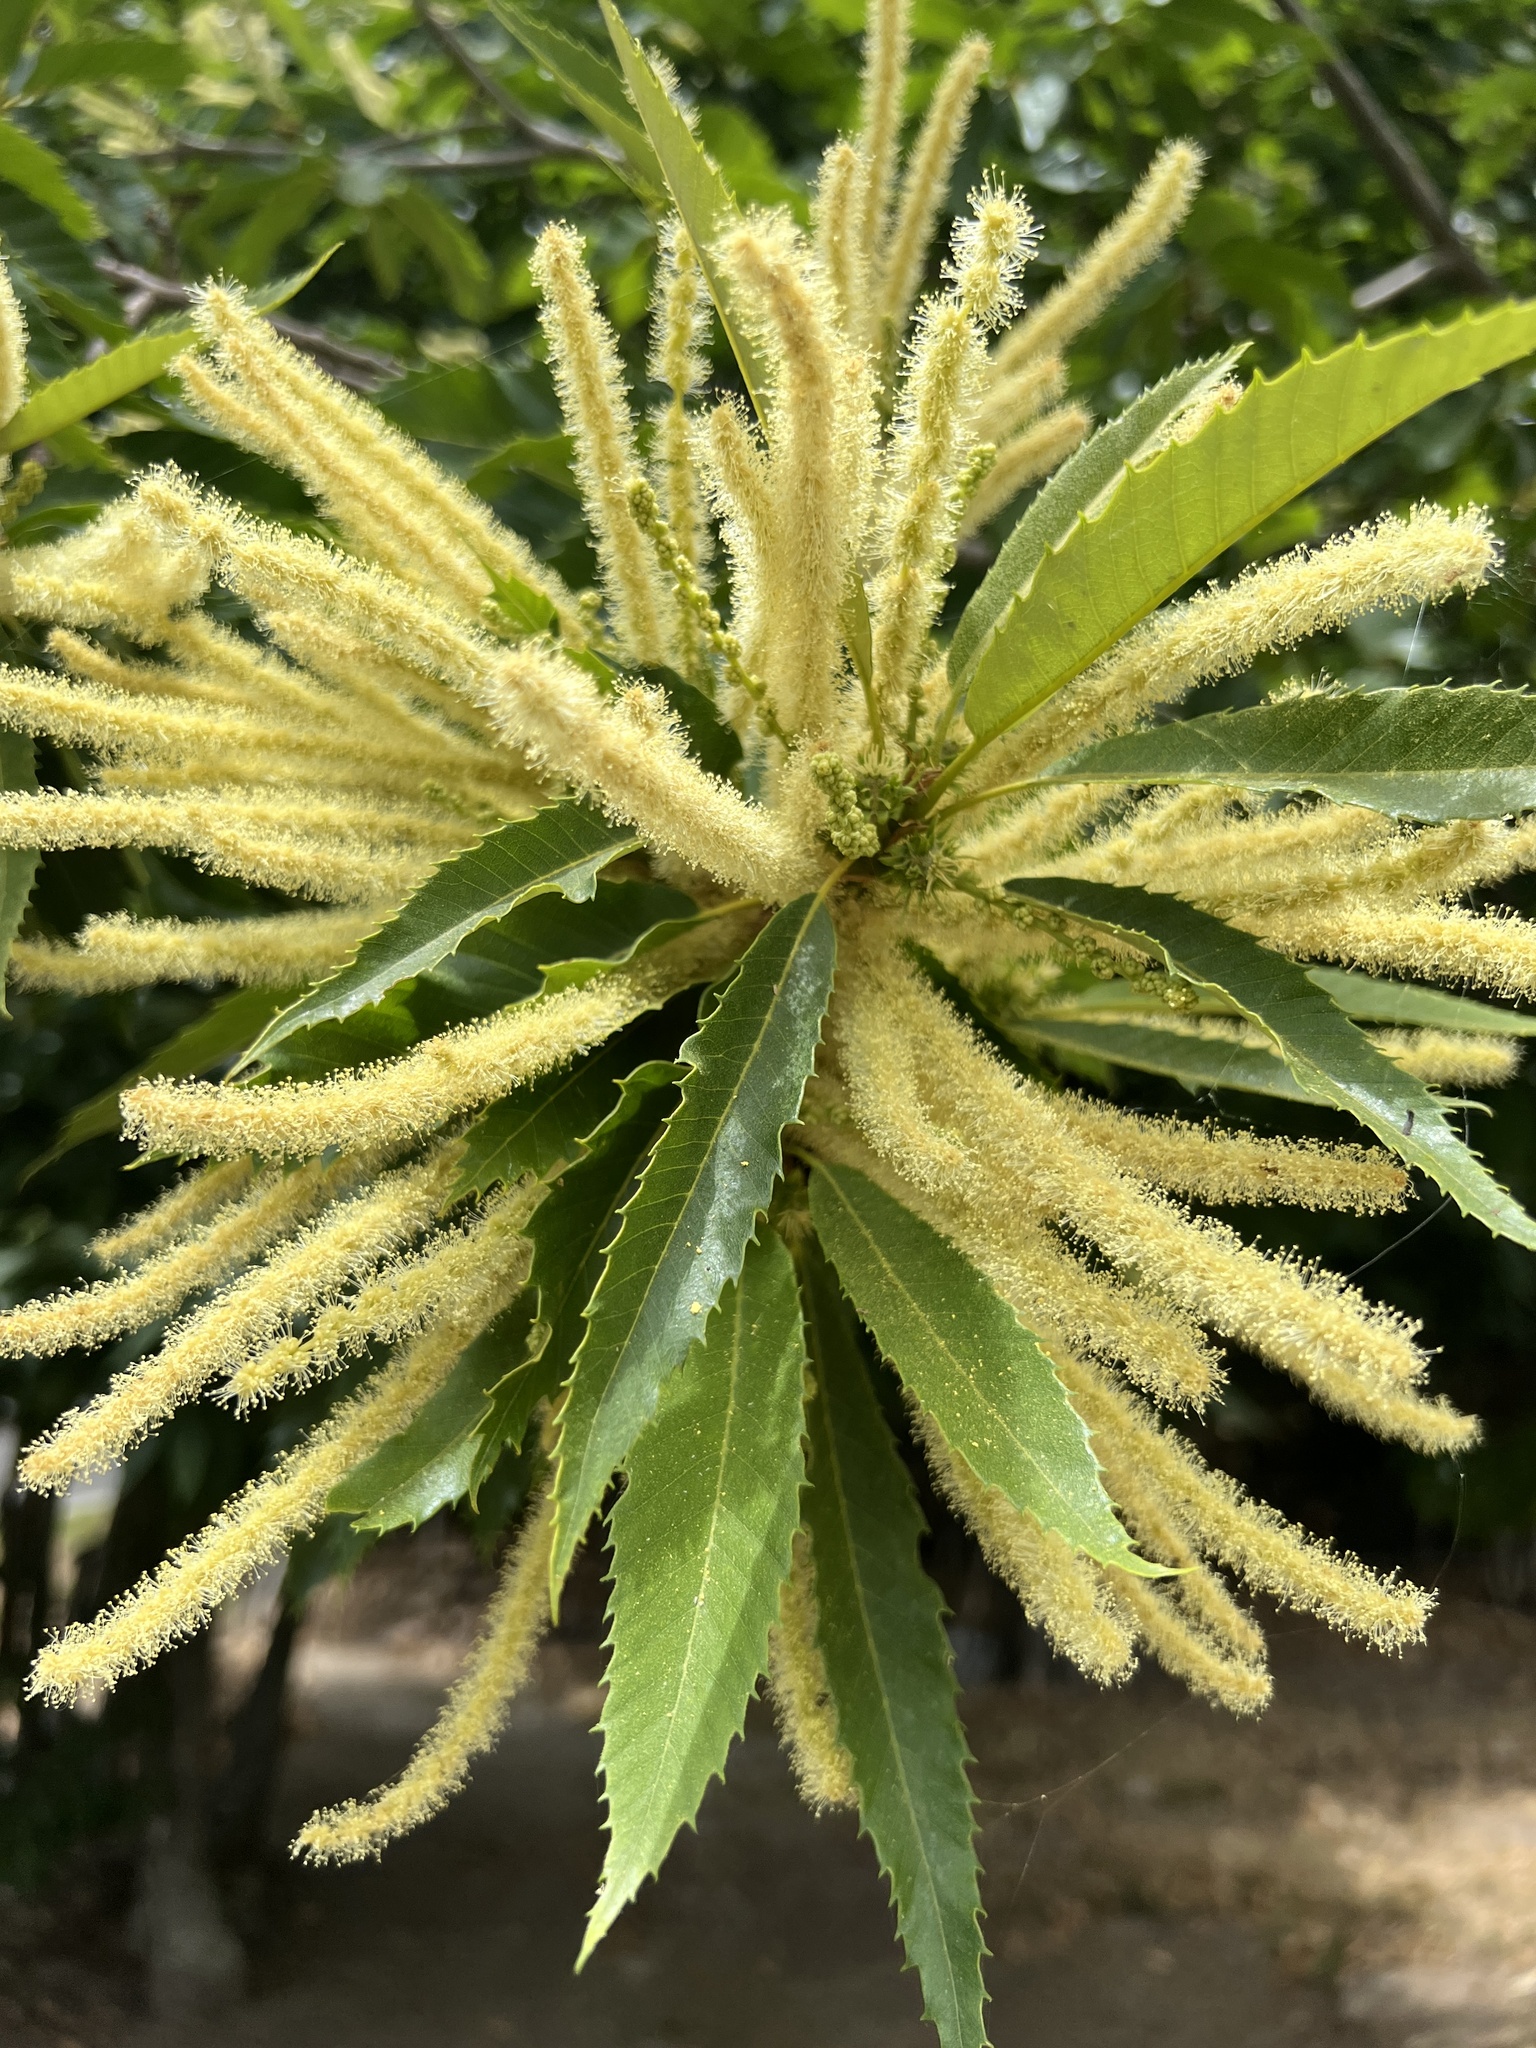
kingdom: Plantae
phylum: Tracheophyta
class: Magnoliopsida
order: Fagales
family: Fagaceae
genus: Castanea
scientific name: Castanea sativa
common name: Sweet chestnut
